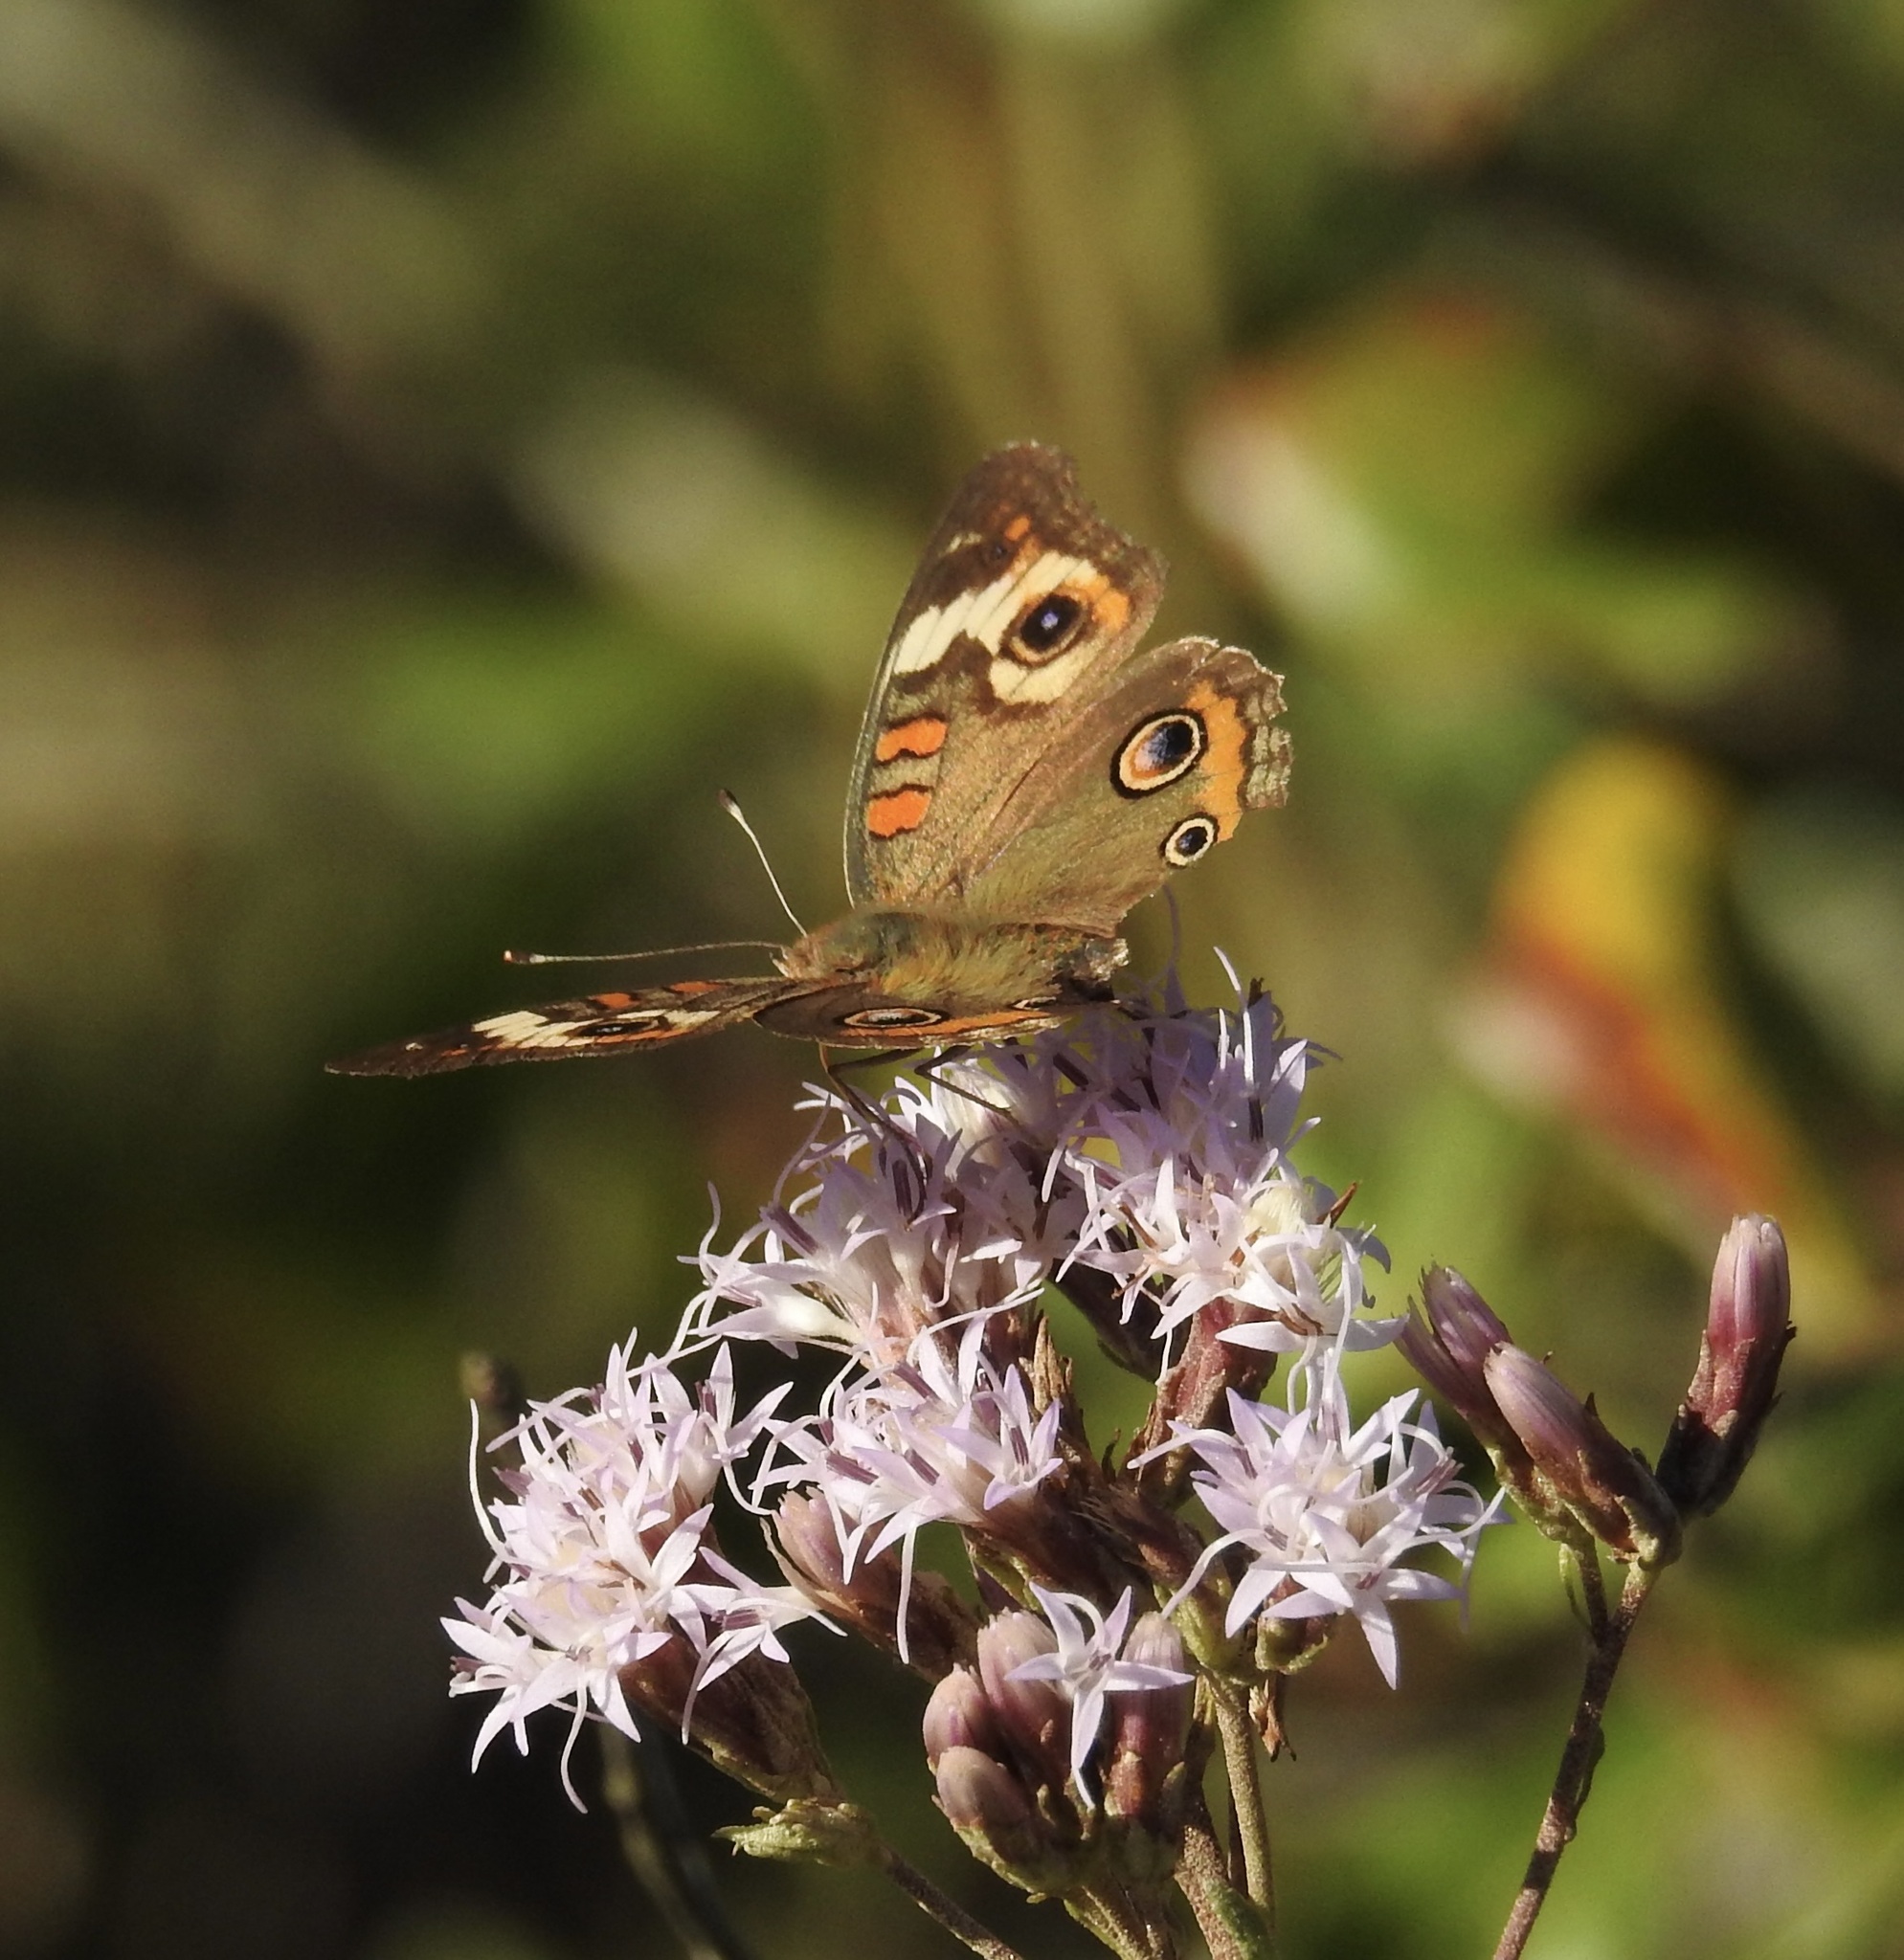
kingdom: Animalia
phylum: Arthropoda
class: Insecta
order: Lepidoptera
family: Nymphalidae
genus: Junonia
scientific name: Junonia coenia
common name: Common buckeye
